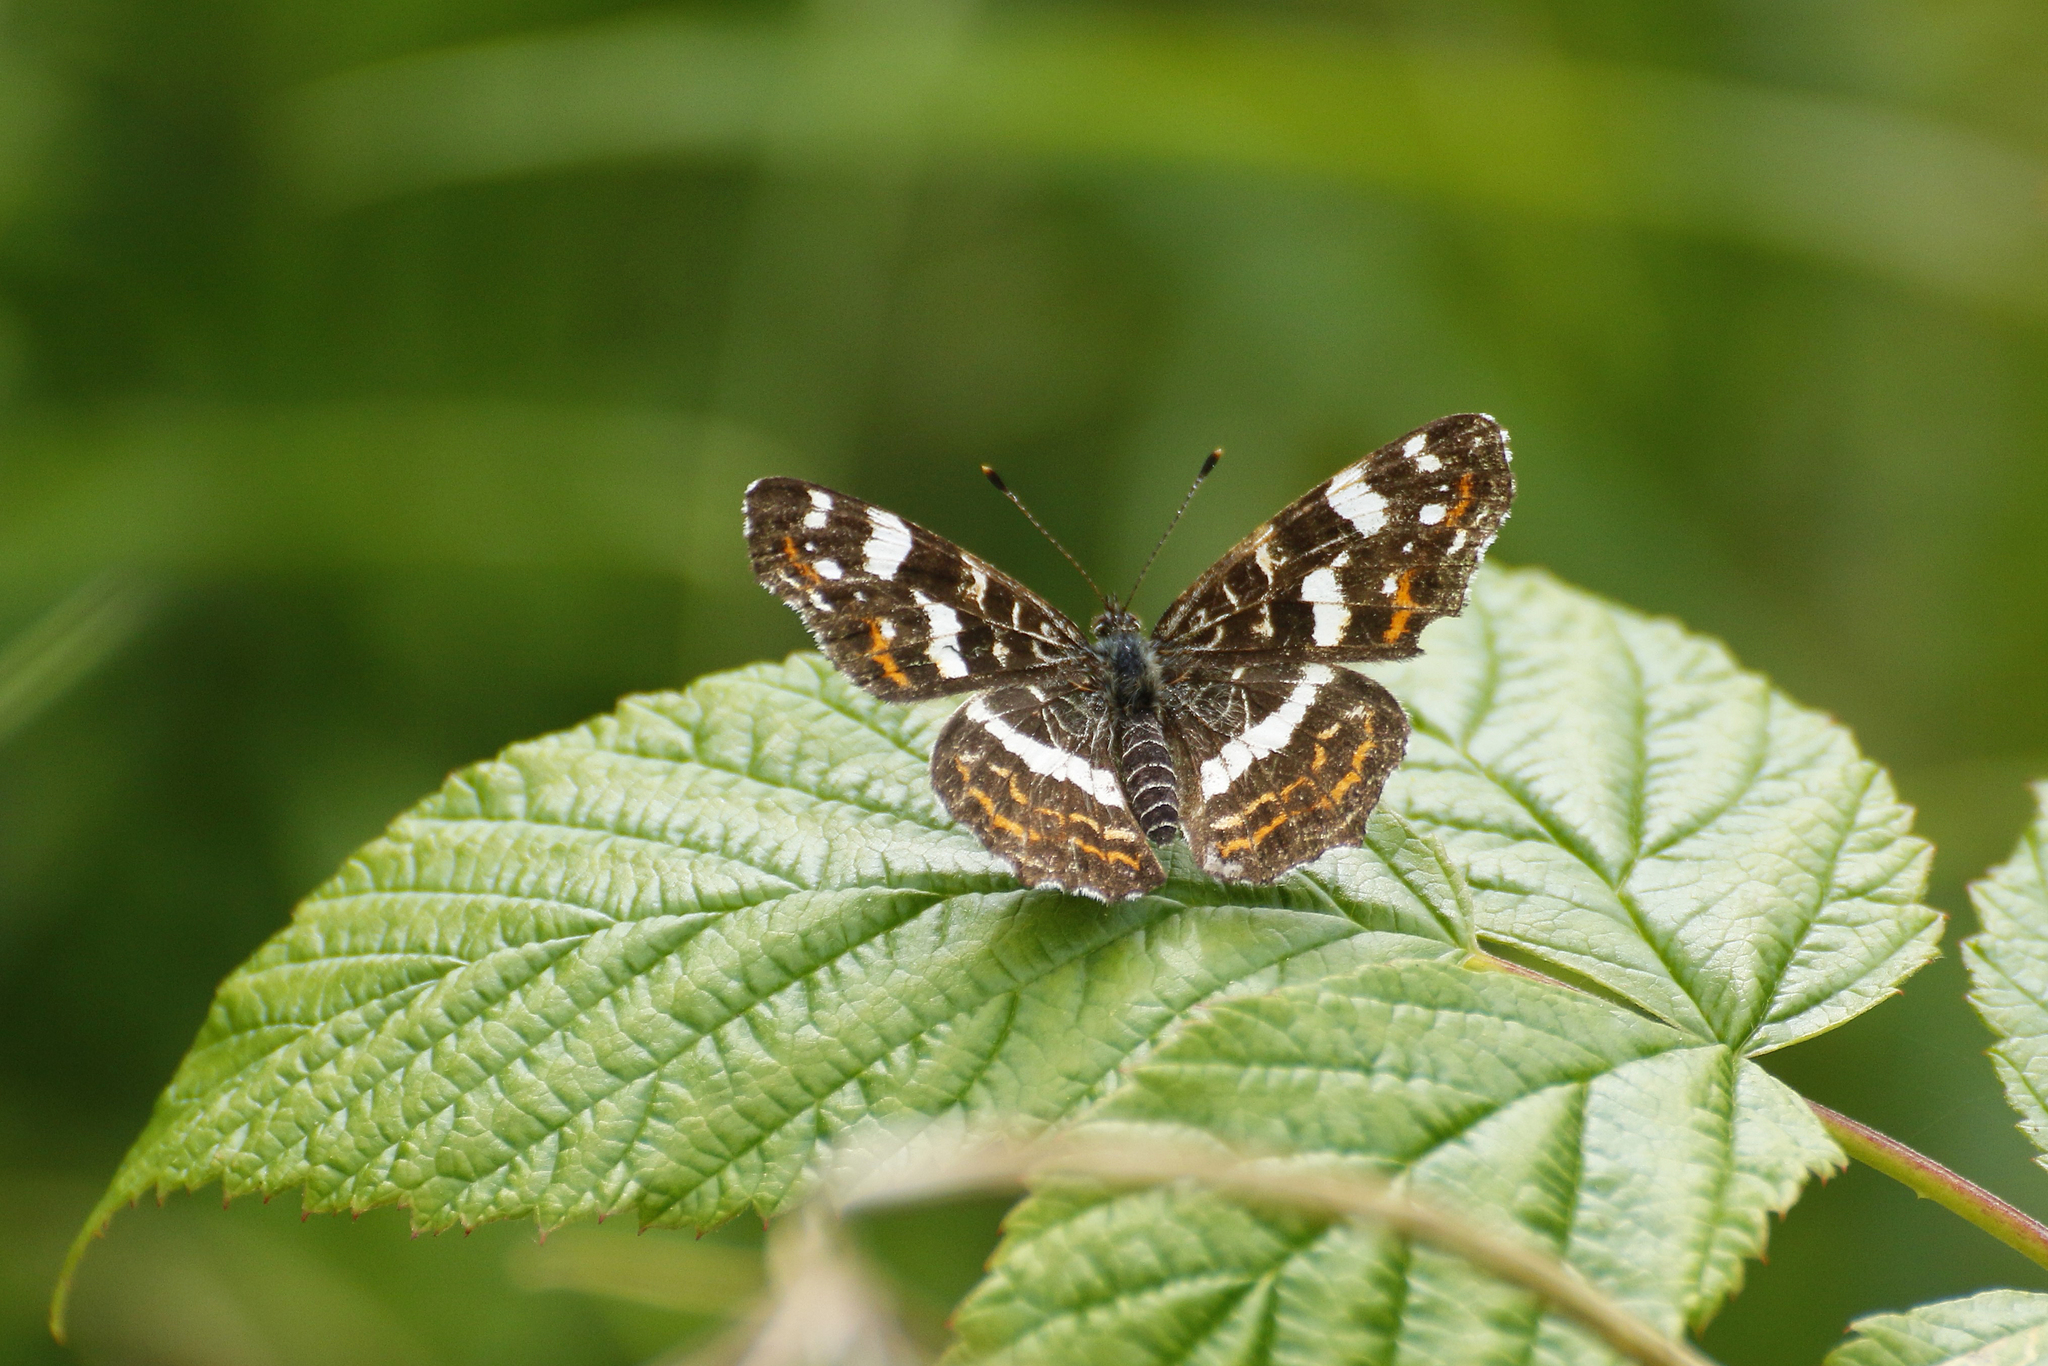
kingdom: Animalia
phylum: Arthropoda
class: Insecta
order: Lepidoptera
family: Nymphalidae
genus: Araschnia
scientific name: Araschnia levana
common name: Map butterfly
